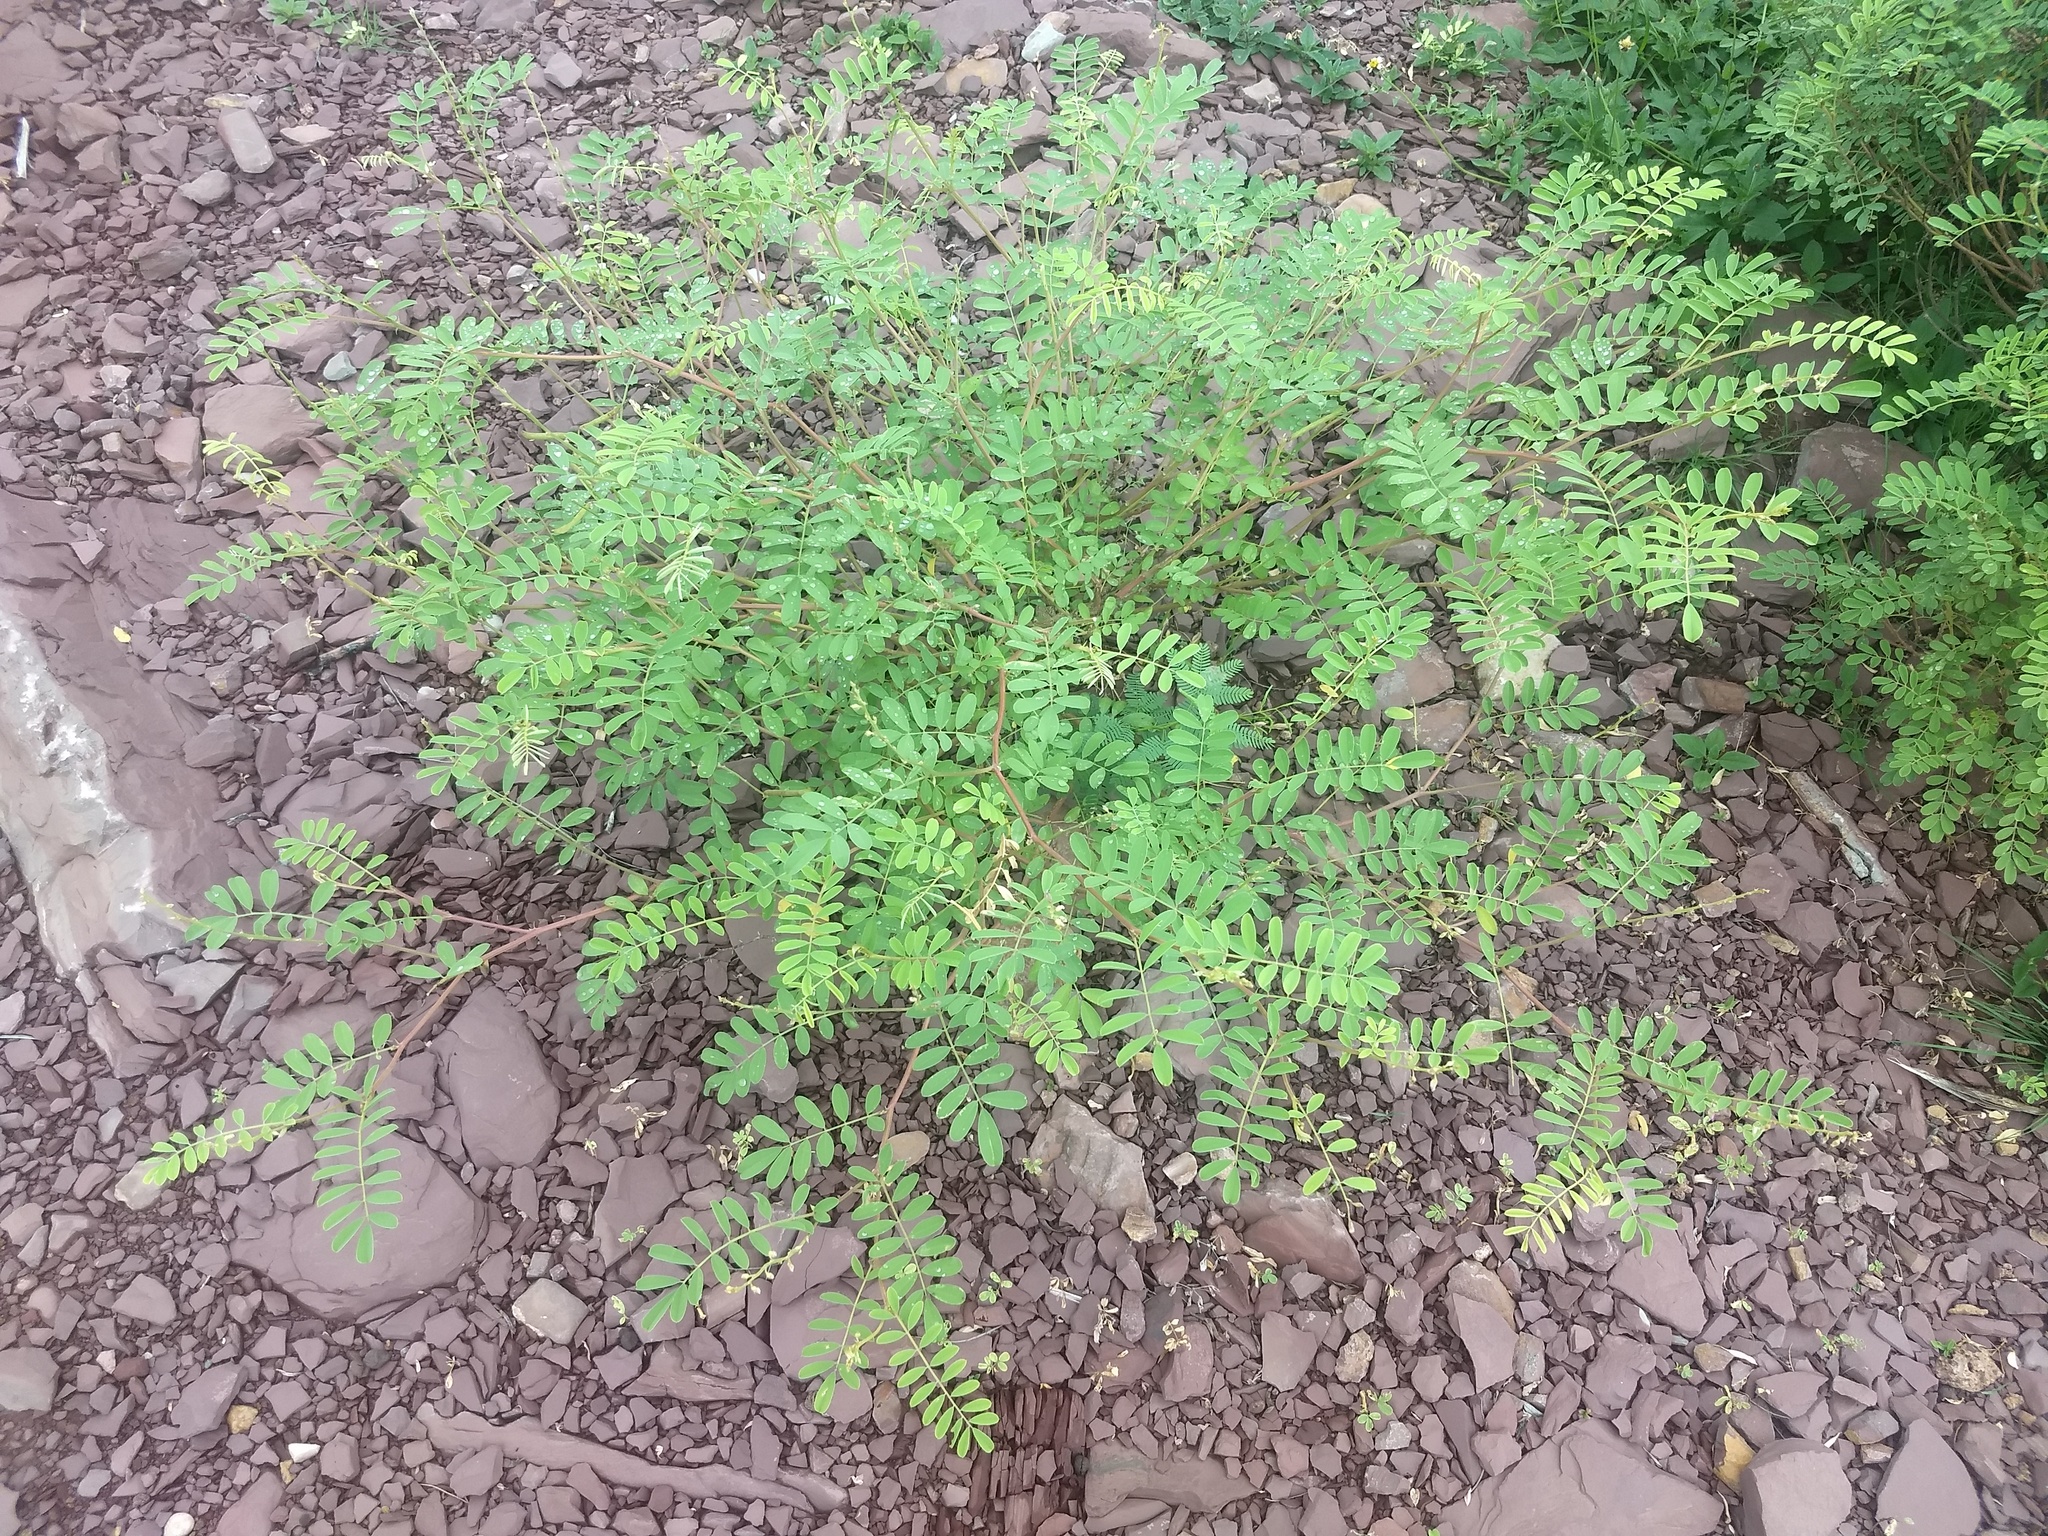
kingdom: Plantae
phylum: Tracheophyta
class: Magnoliopsida
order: Fabales
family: Fabaceae
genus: Tephrosia
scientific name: Tephrosia purpurea
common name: Fishpoison
